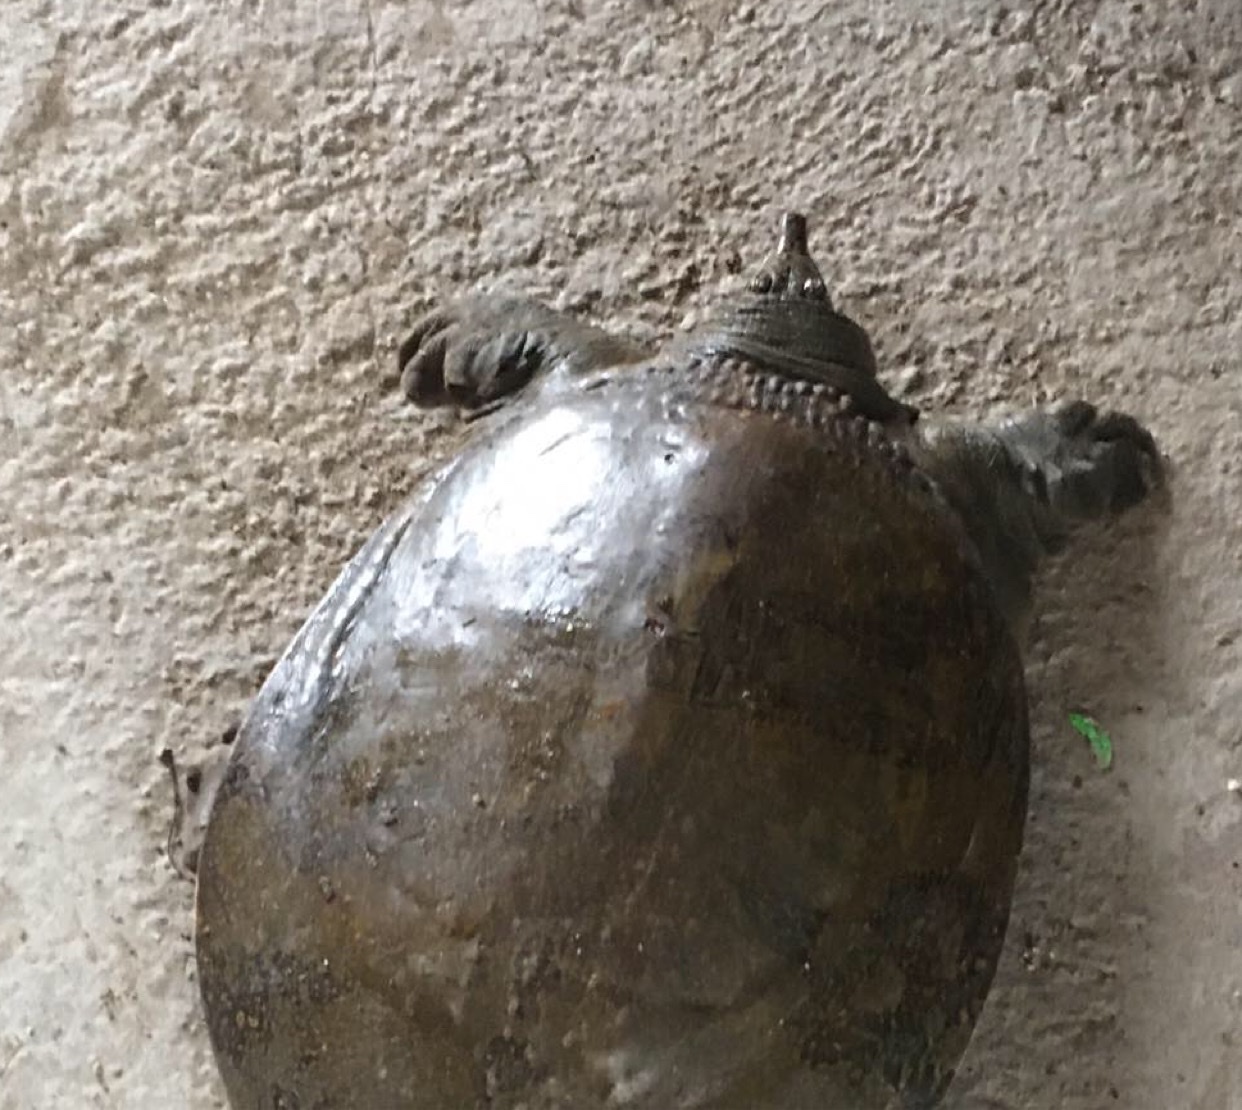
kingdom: Animalia
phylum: Chordata
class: Testudines
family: Trionychidae
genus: Amyda
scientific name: Amyda ornata
